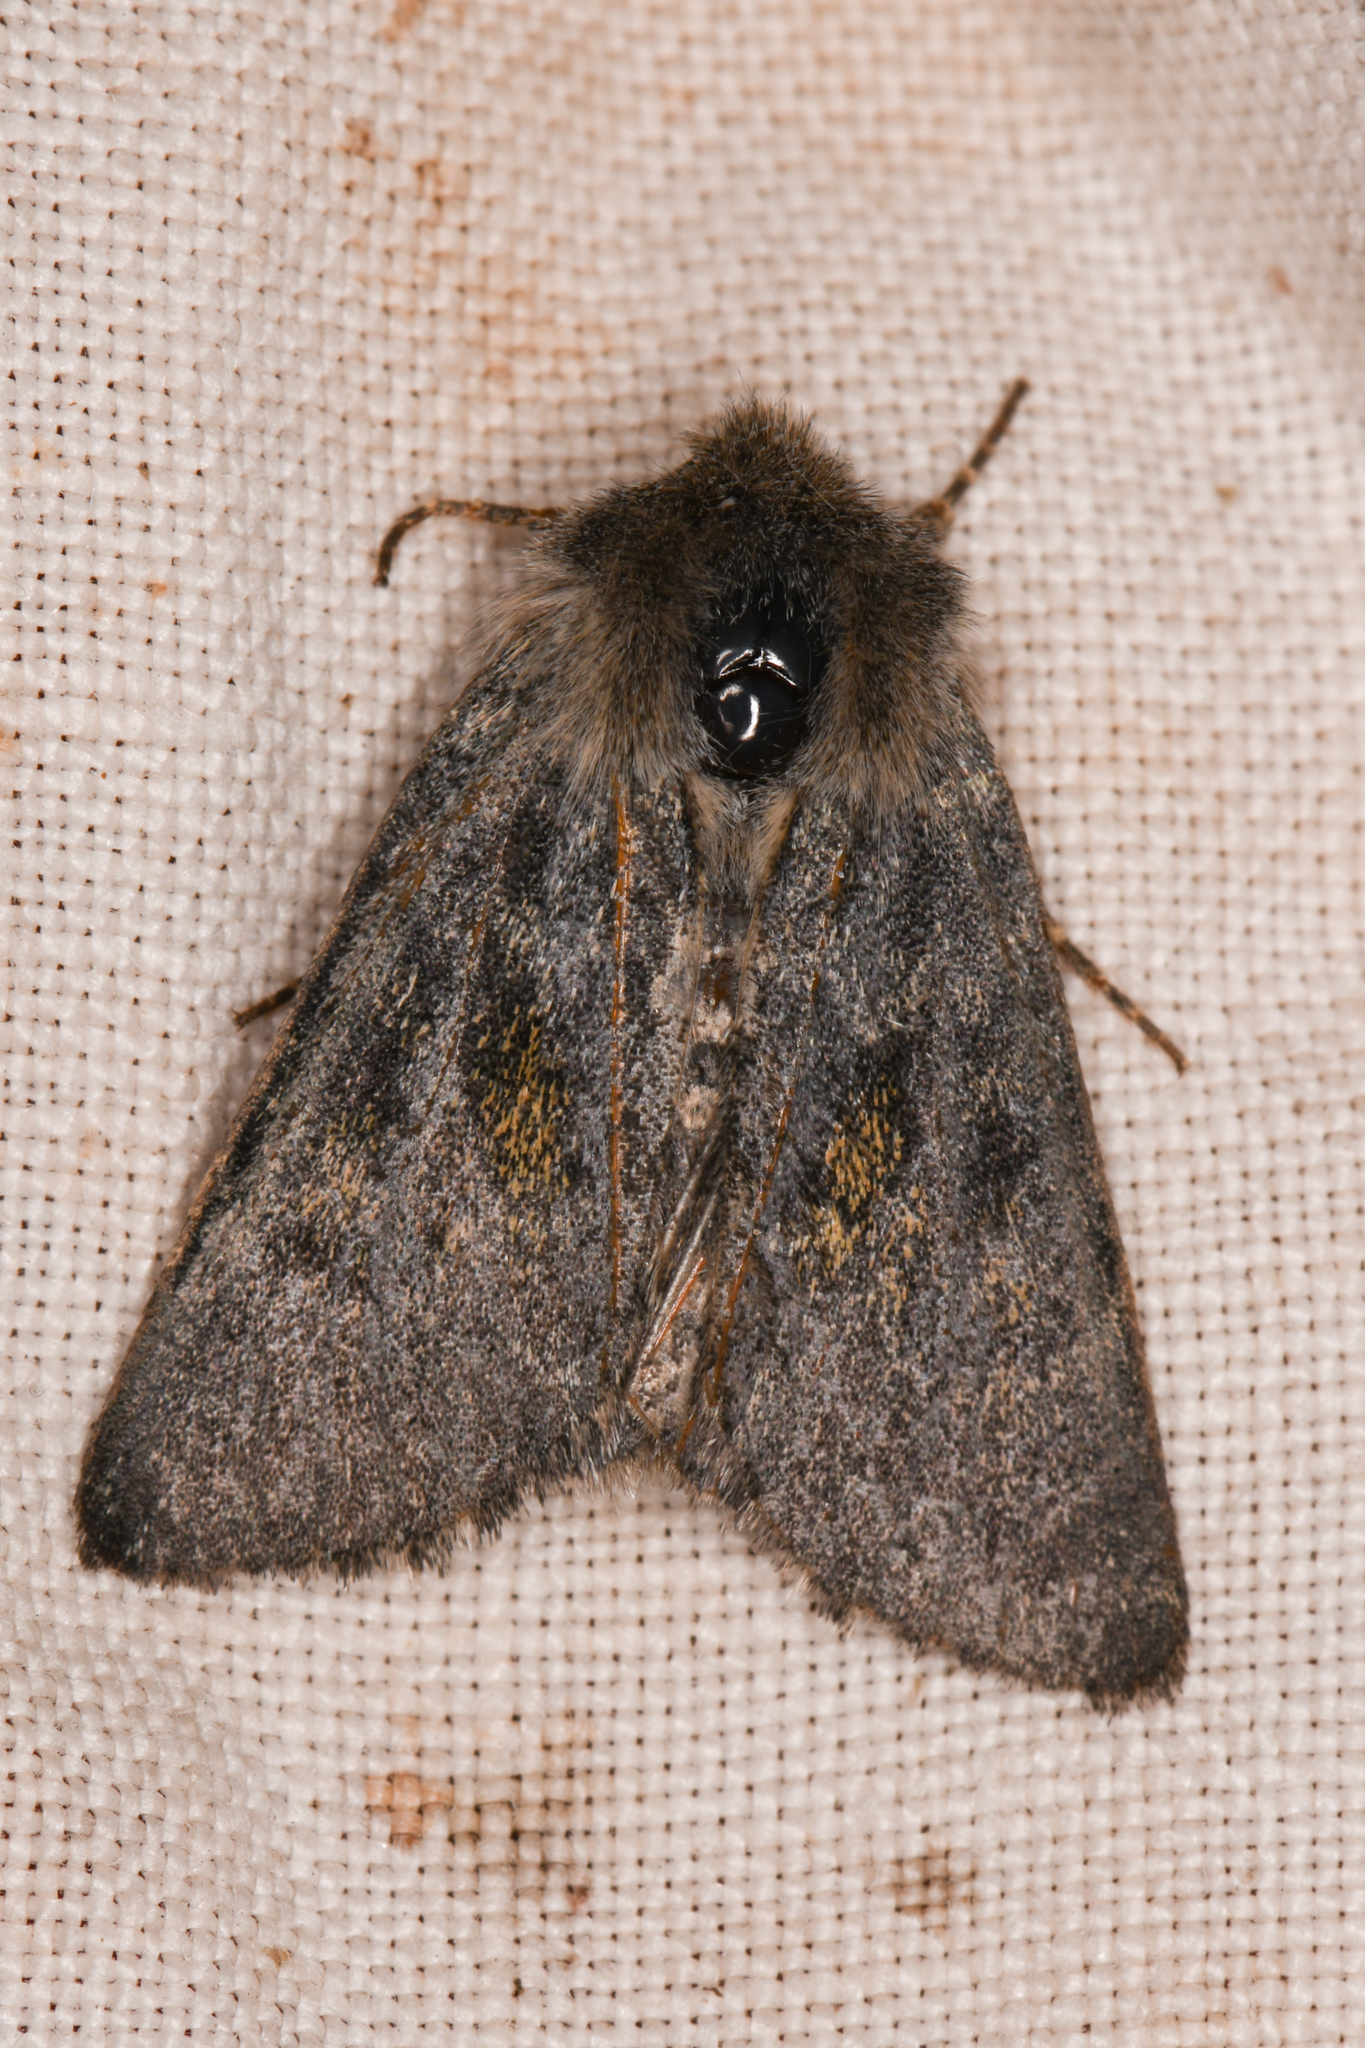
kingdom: Animalia
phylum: Arthropoda
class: Insecta
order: Lepidoptera
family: Noctuidae
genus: Lasionycta
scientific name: Lasionycta luteola
